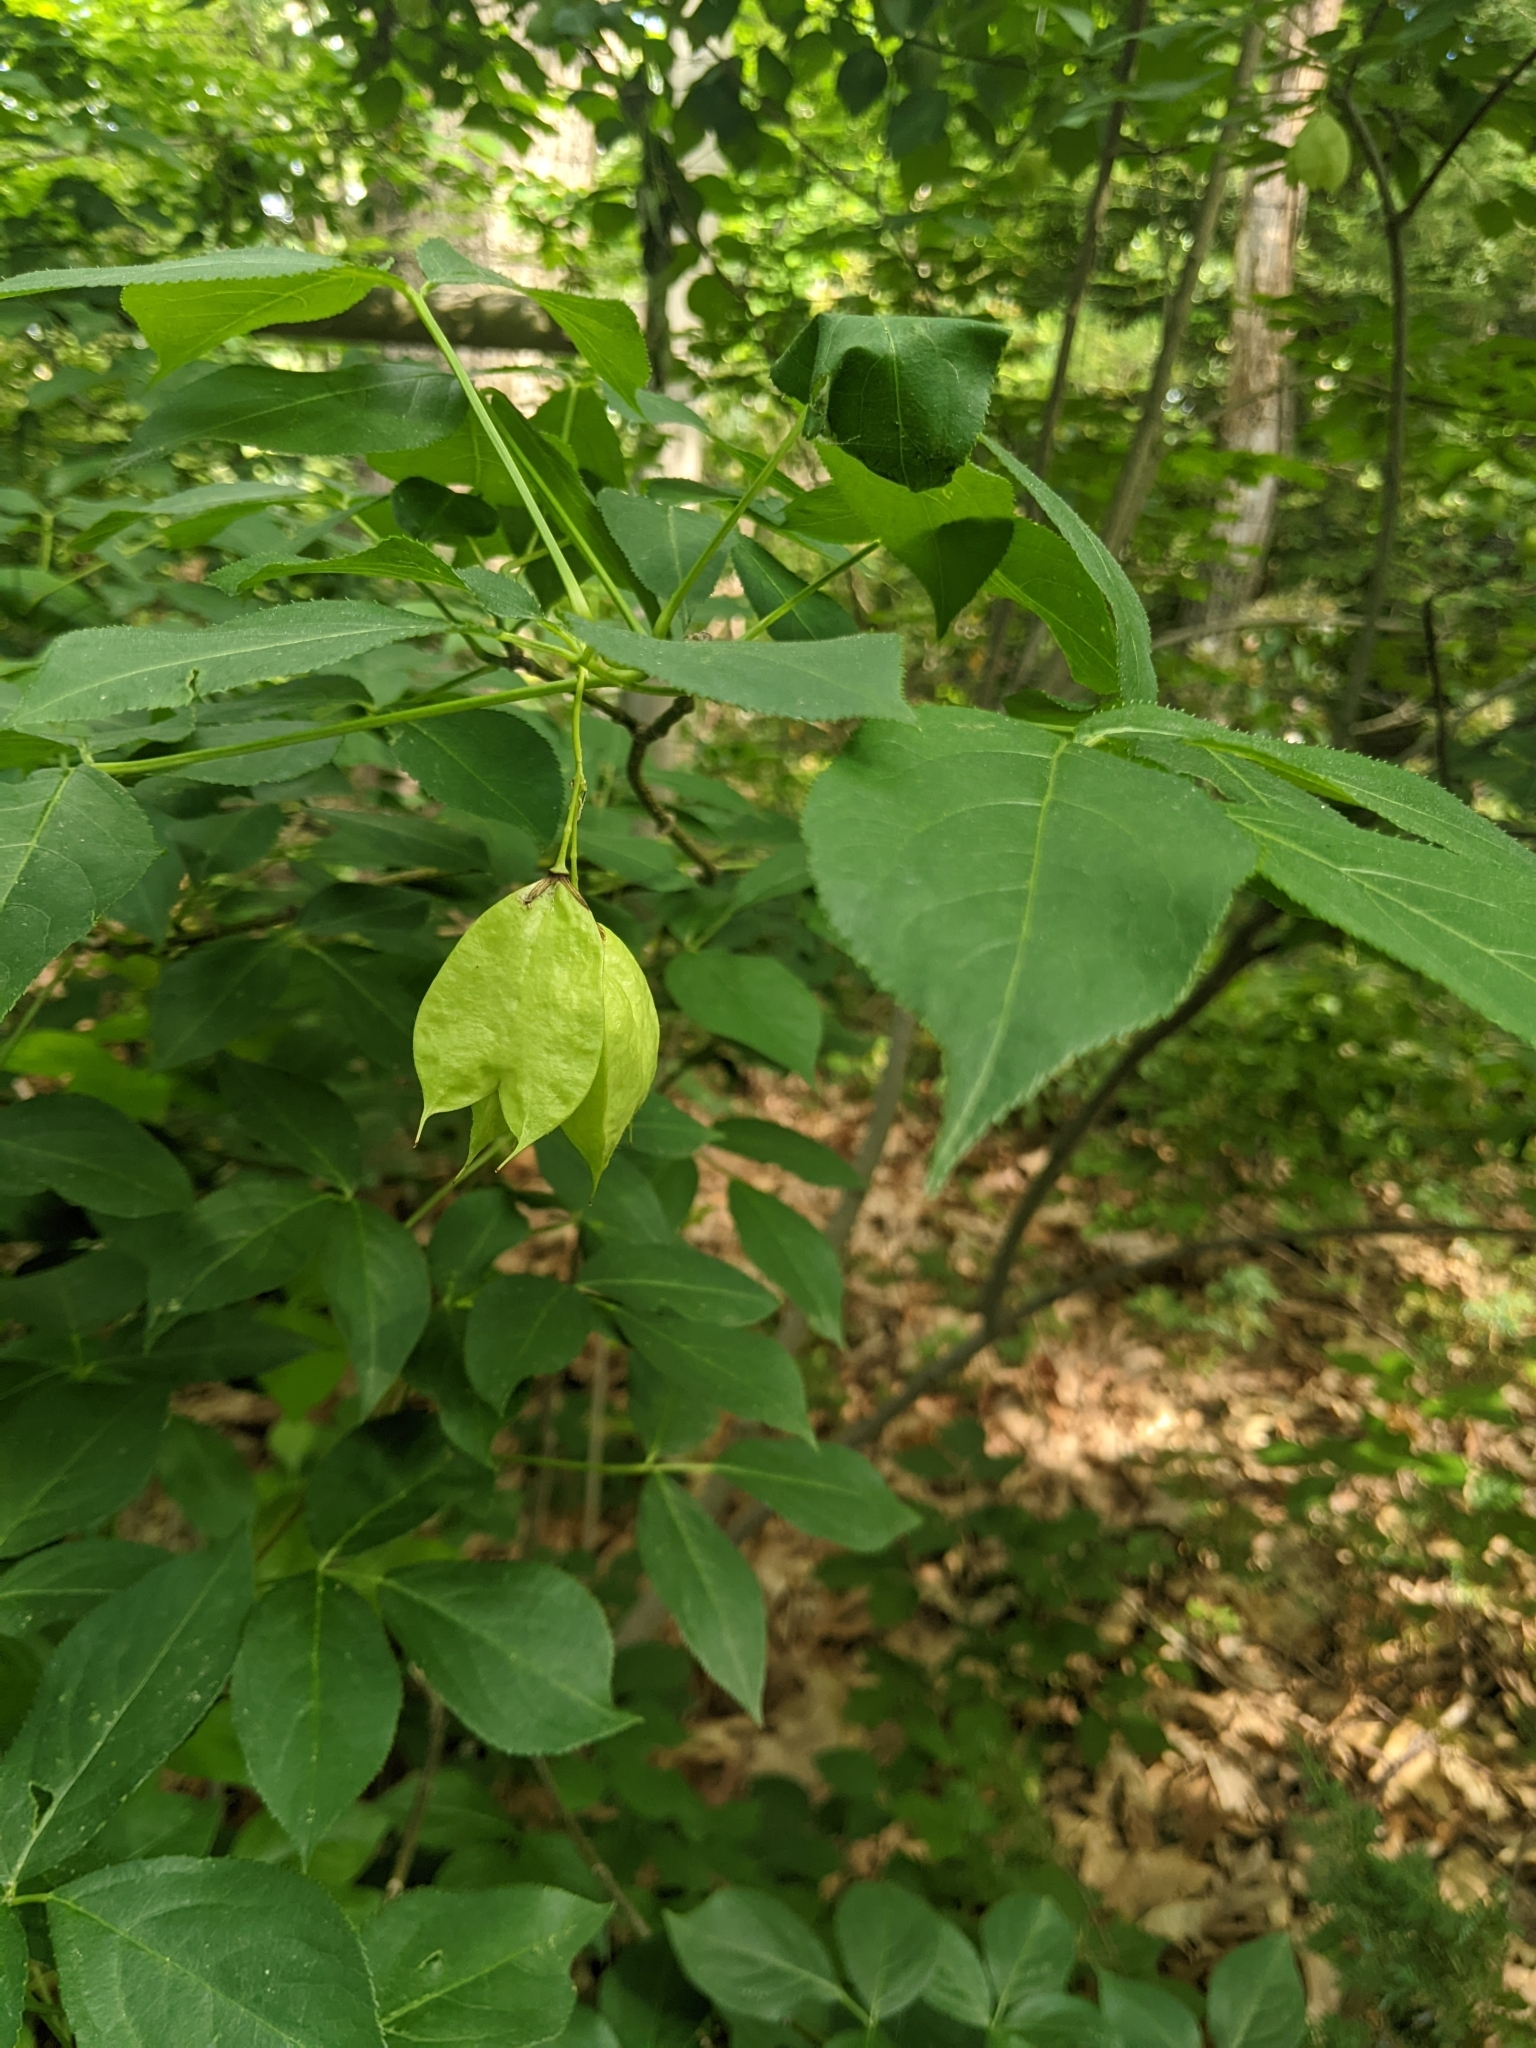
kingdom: Plantae
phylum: Tracheophyta
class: Magnoliopsida
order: Crossosomatales
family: Staphyleaceae
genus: Staphylea
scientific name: Staphylea trifolia
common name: American bladdernut
